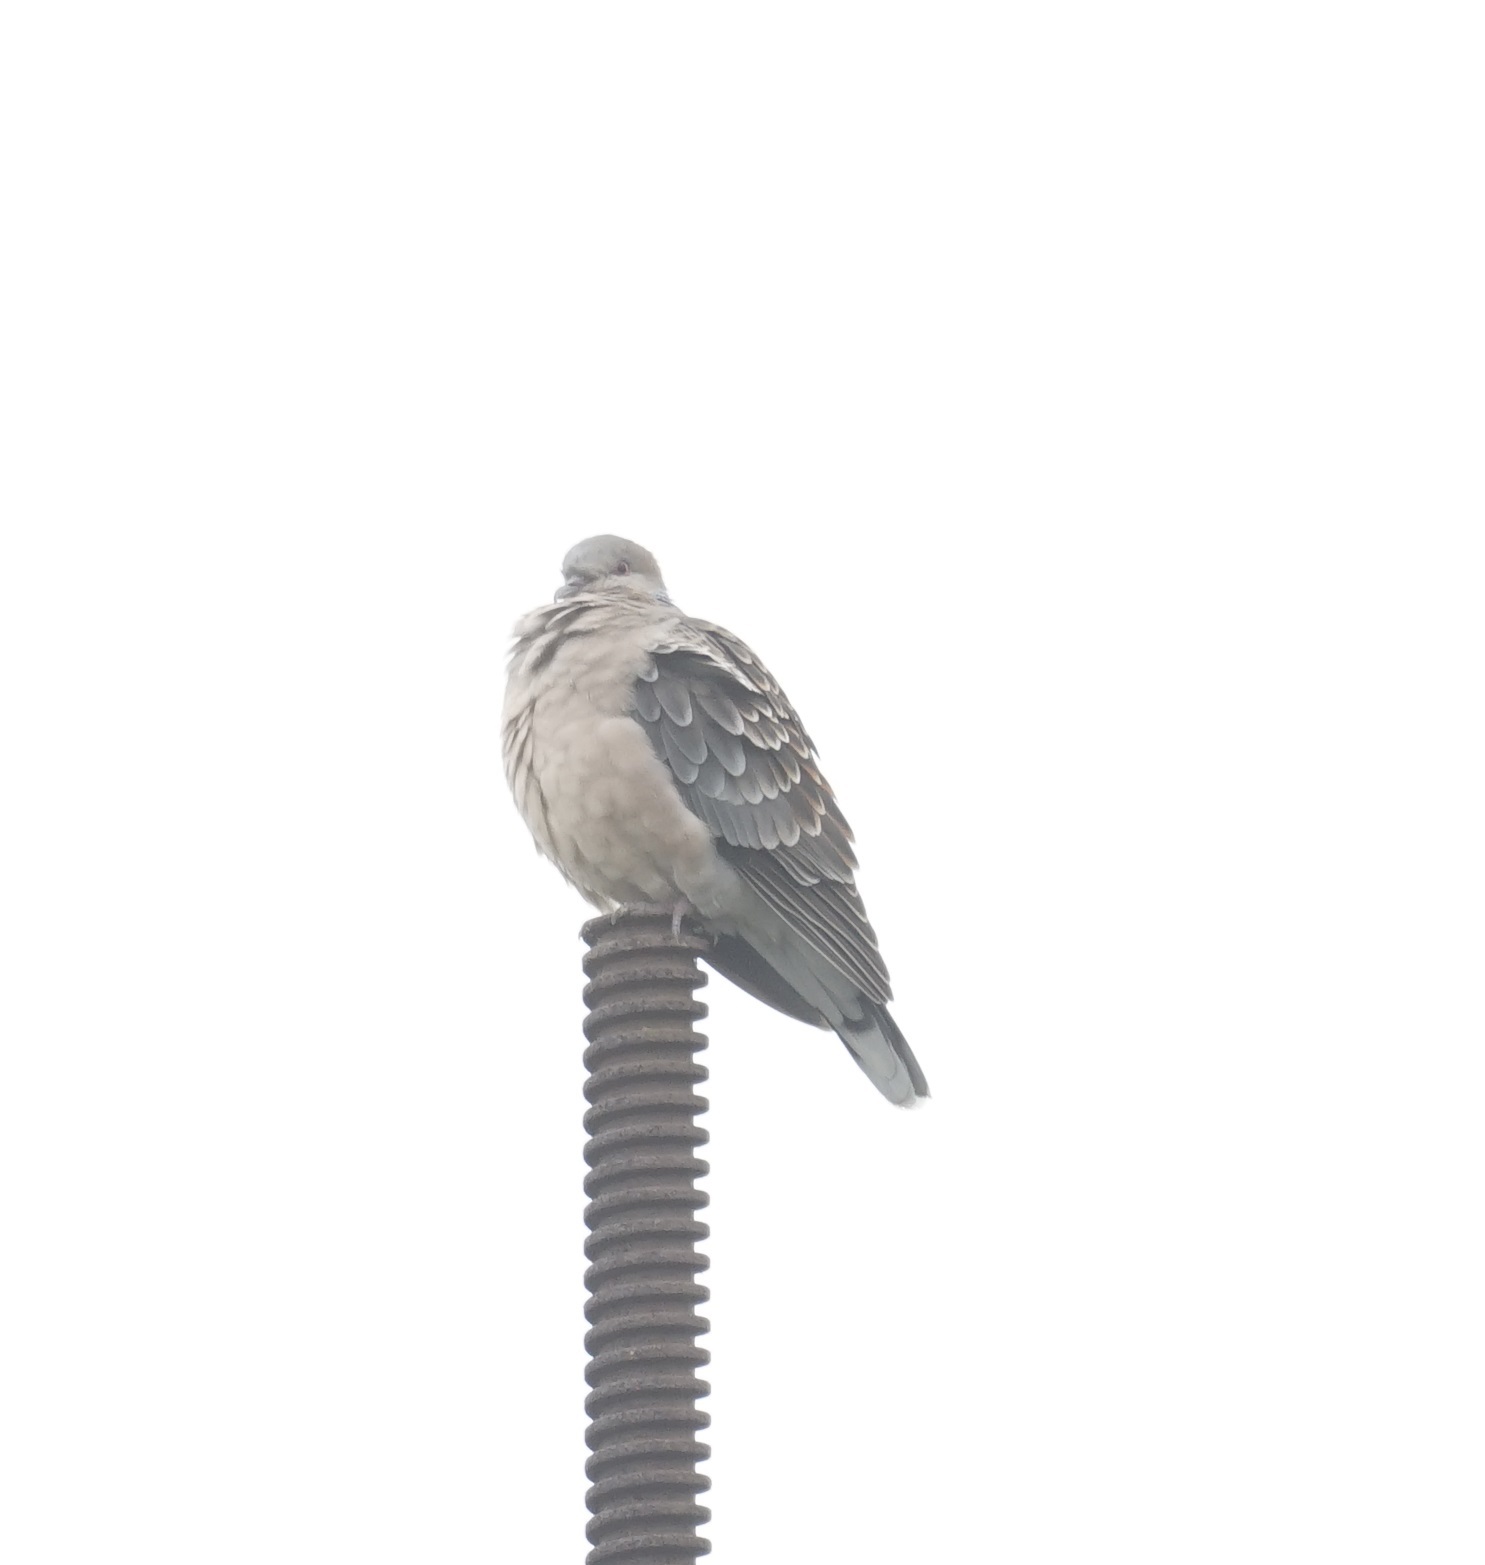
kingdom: Animalia
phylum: Chordata
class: Aves
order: Columbiformes
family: Columbidae
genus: Streptopelia
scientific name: Streptopelia orientalis
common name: Oriental turtle dove
